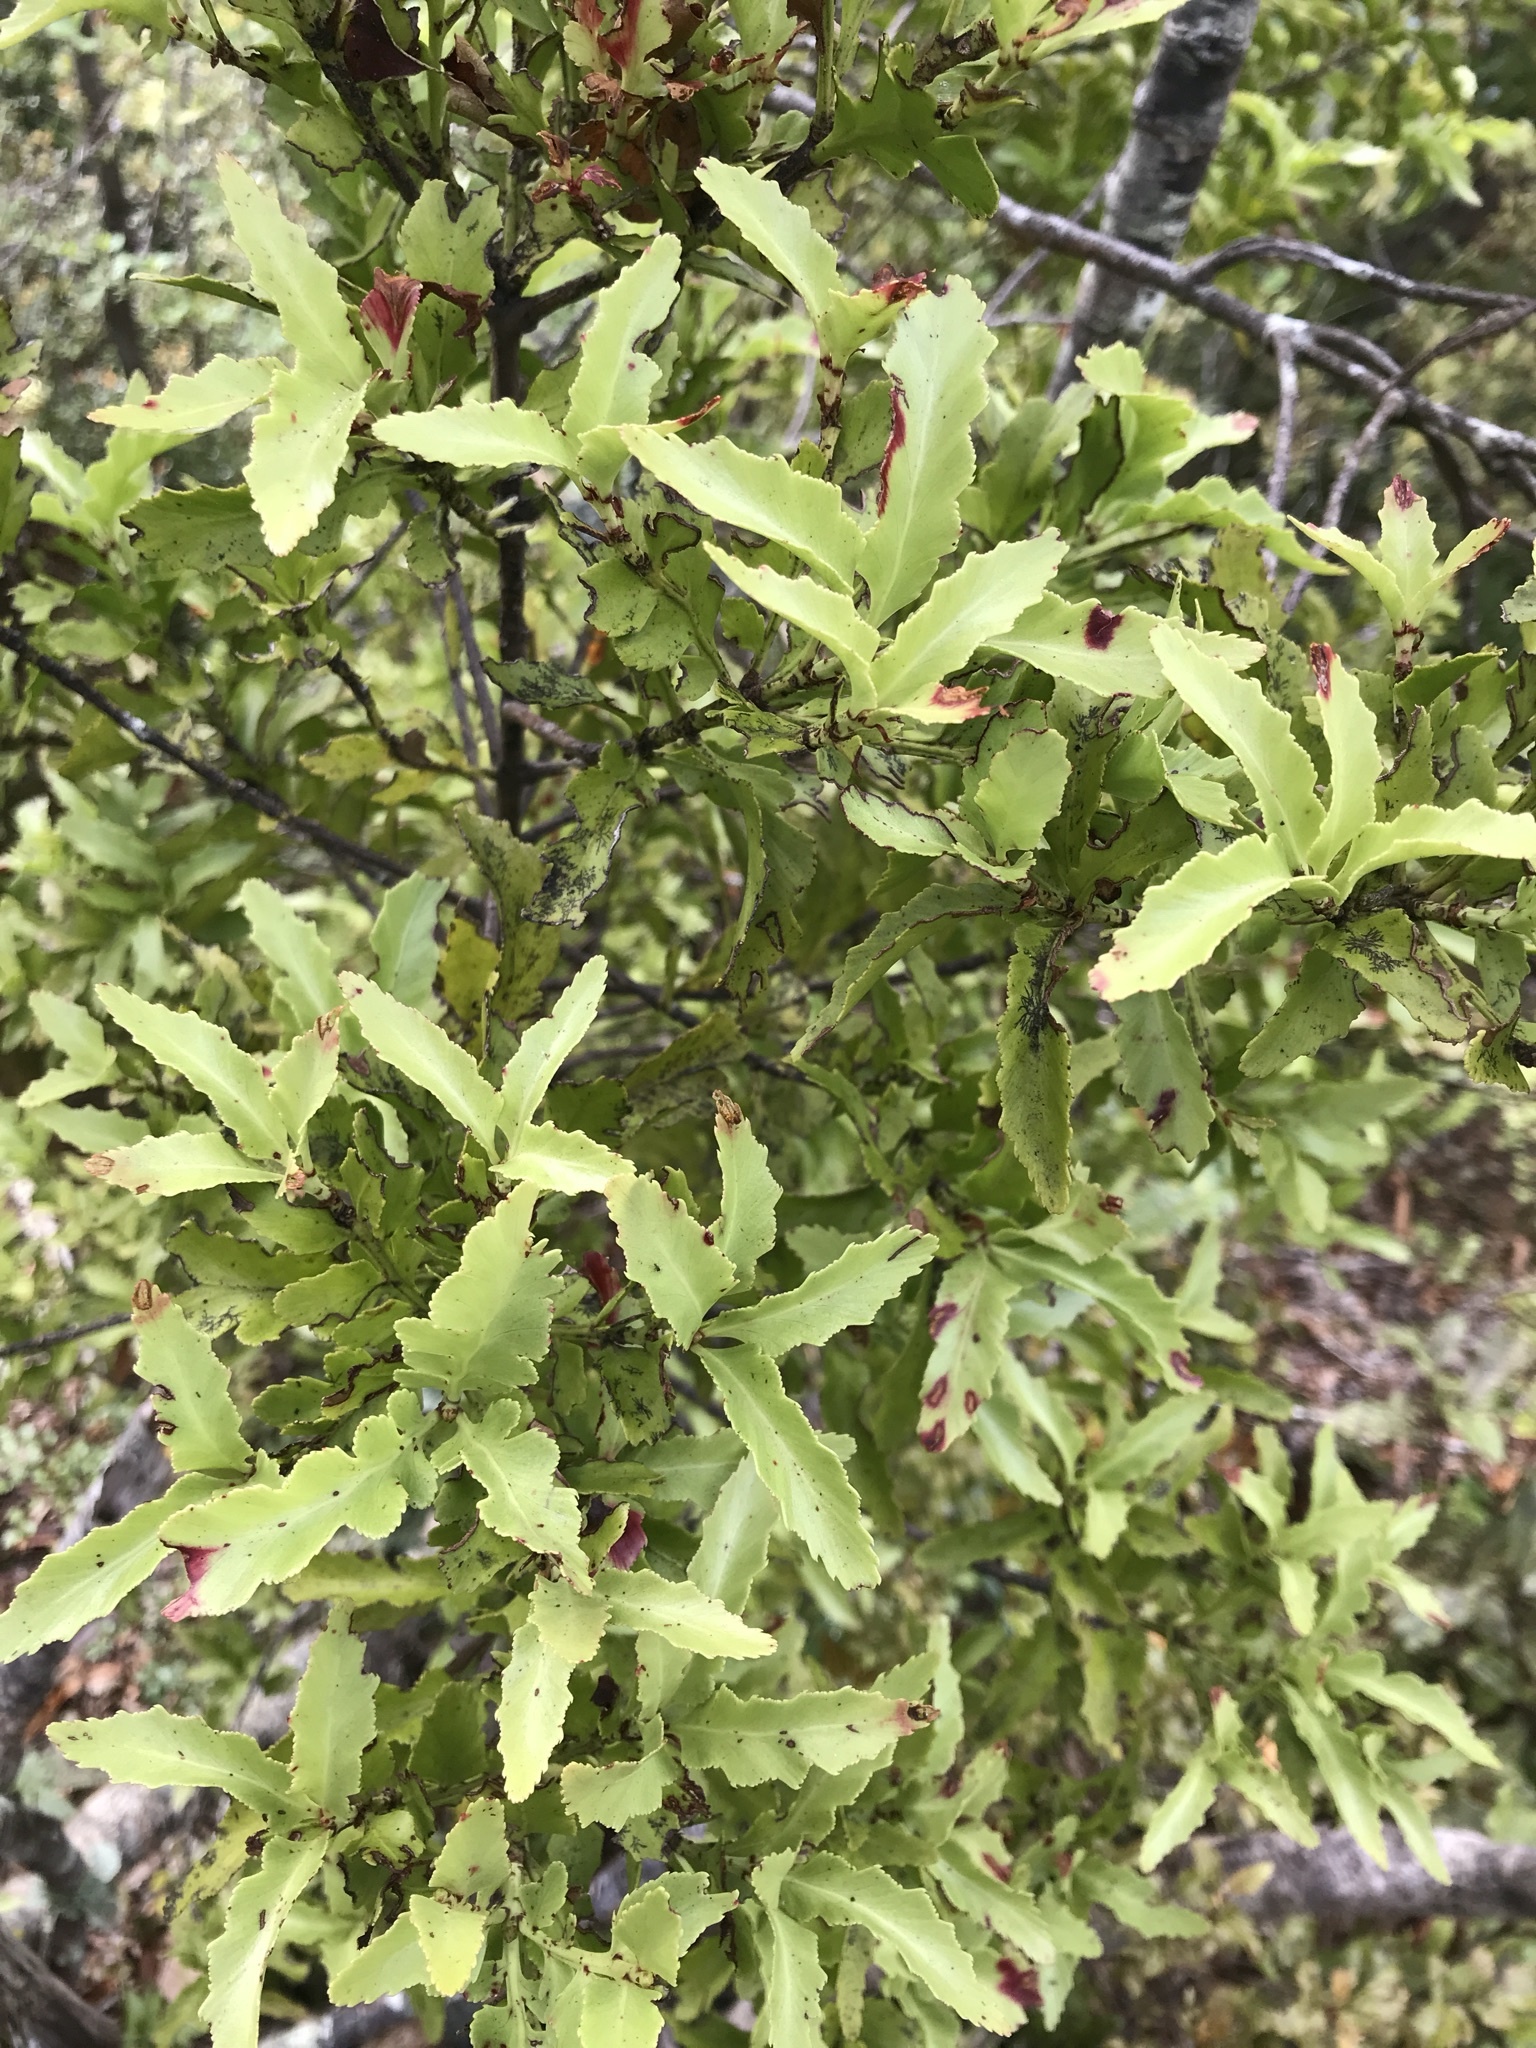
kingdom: Plantae
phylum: Tracheophyta
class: Pinopsida
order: Pinales
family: Phyllocladaceae
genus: Phyllocladus
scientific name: Phyllocladus trichomanoides
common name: Celery pine
